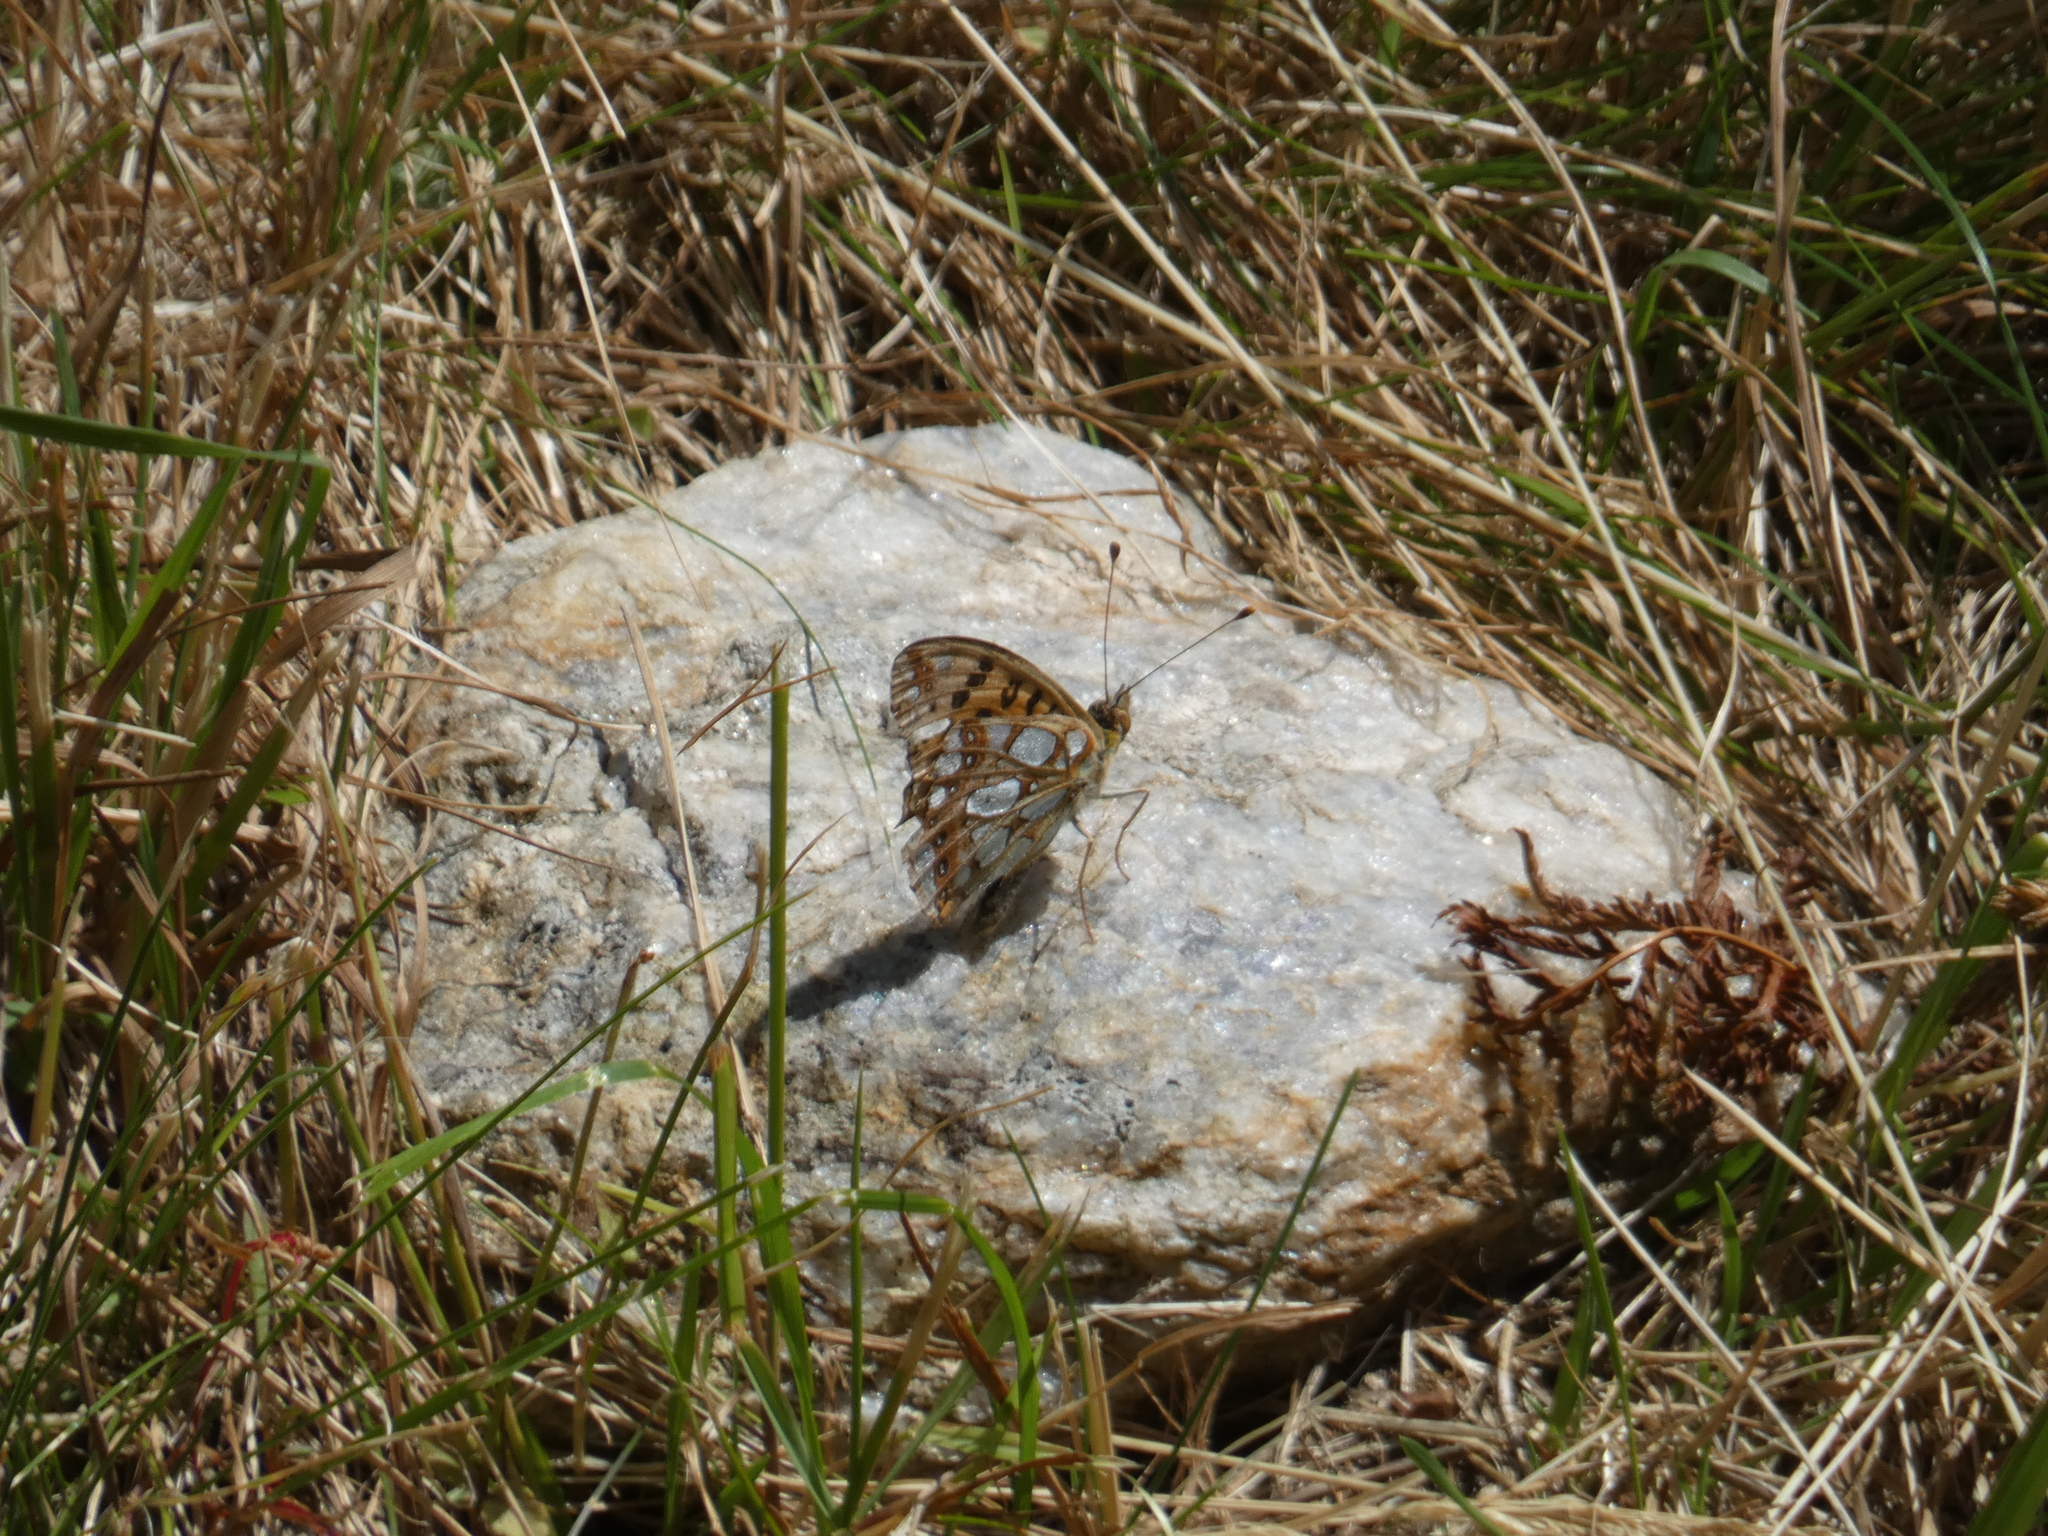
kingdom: Animalia
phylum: Arthropoda
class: Insecta
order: Lepidoptera
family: Nymphalidae
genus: Issoria
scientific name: Issoria lathonia
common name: Queen of spain fritillary
